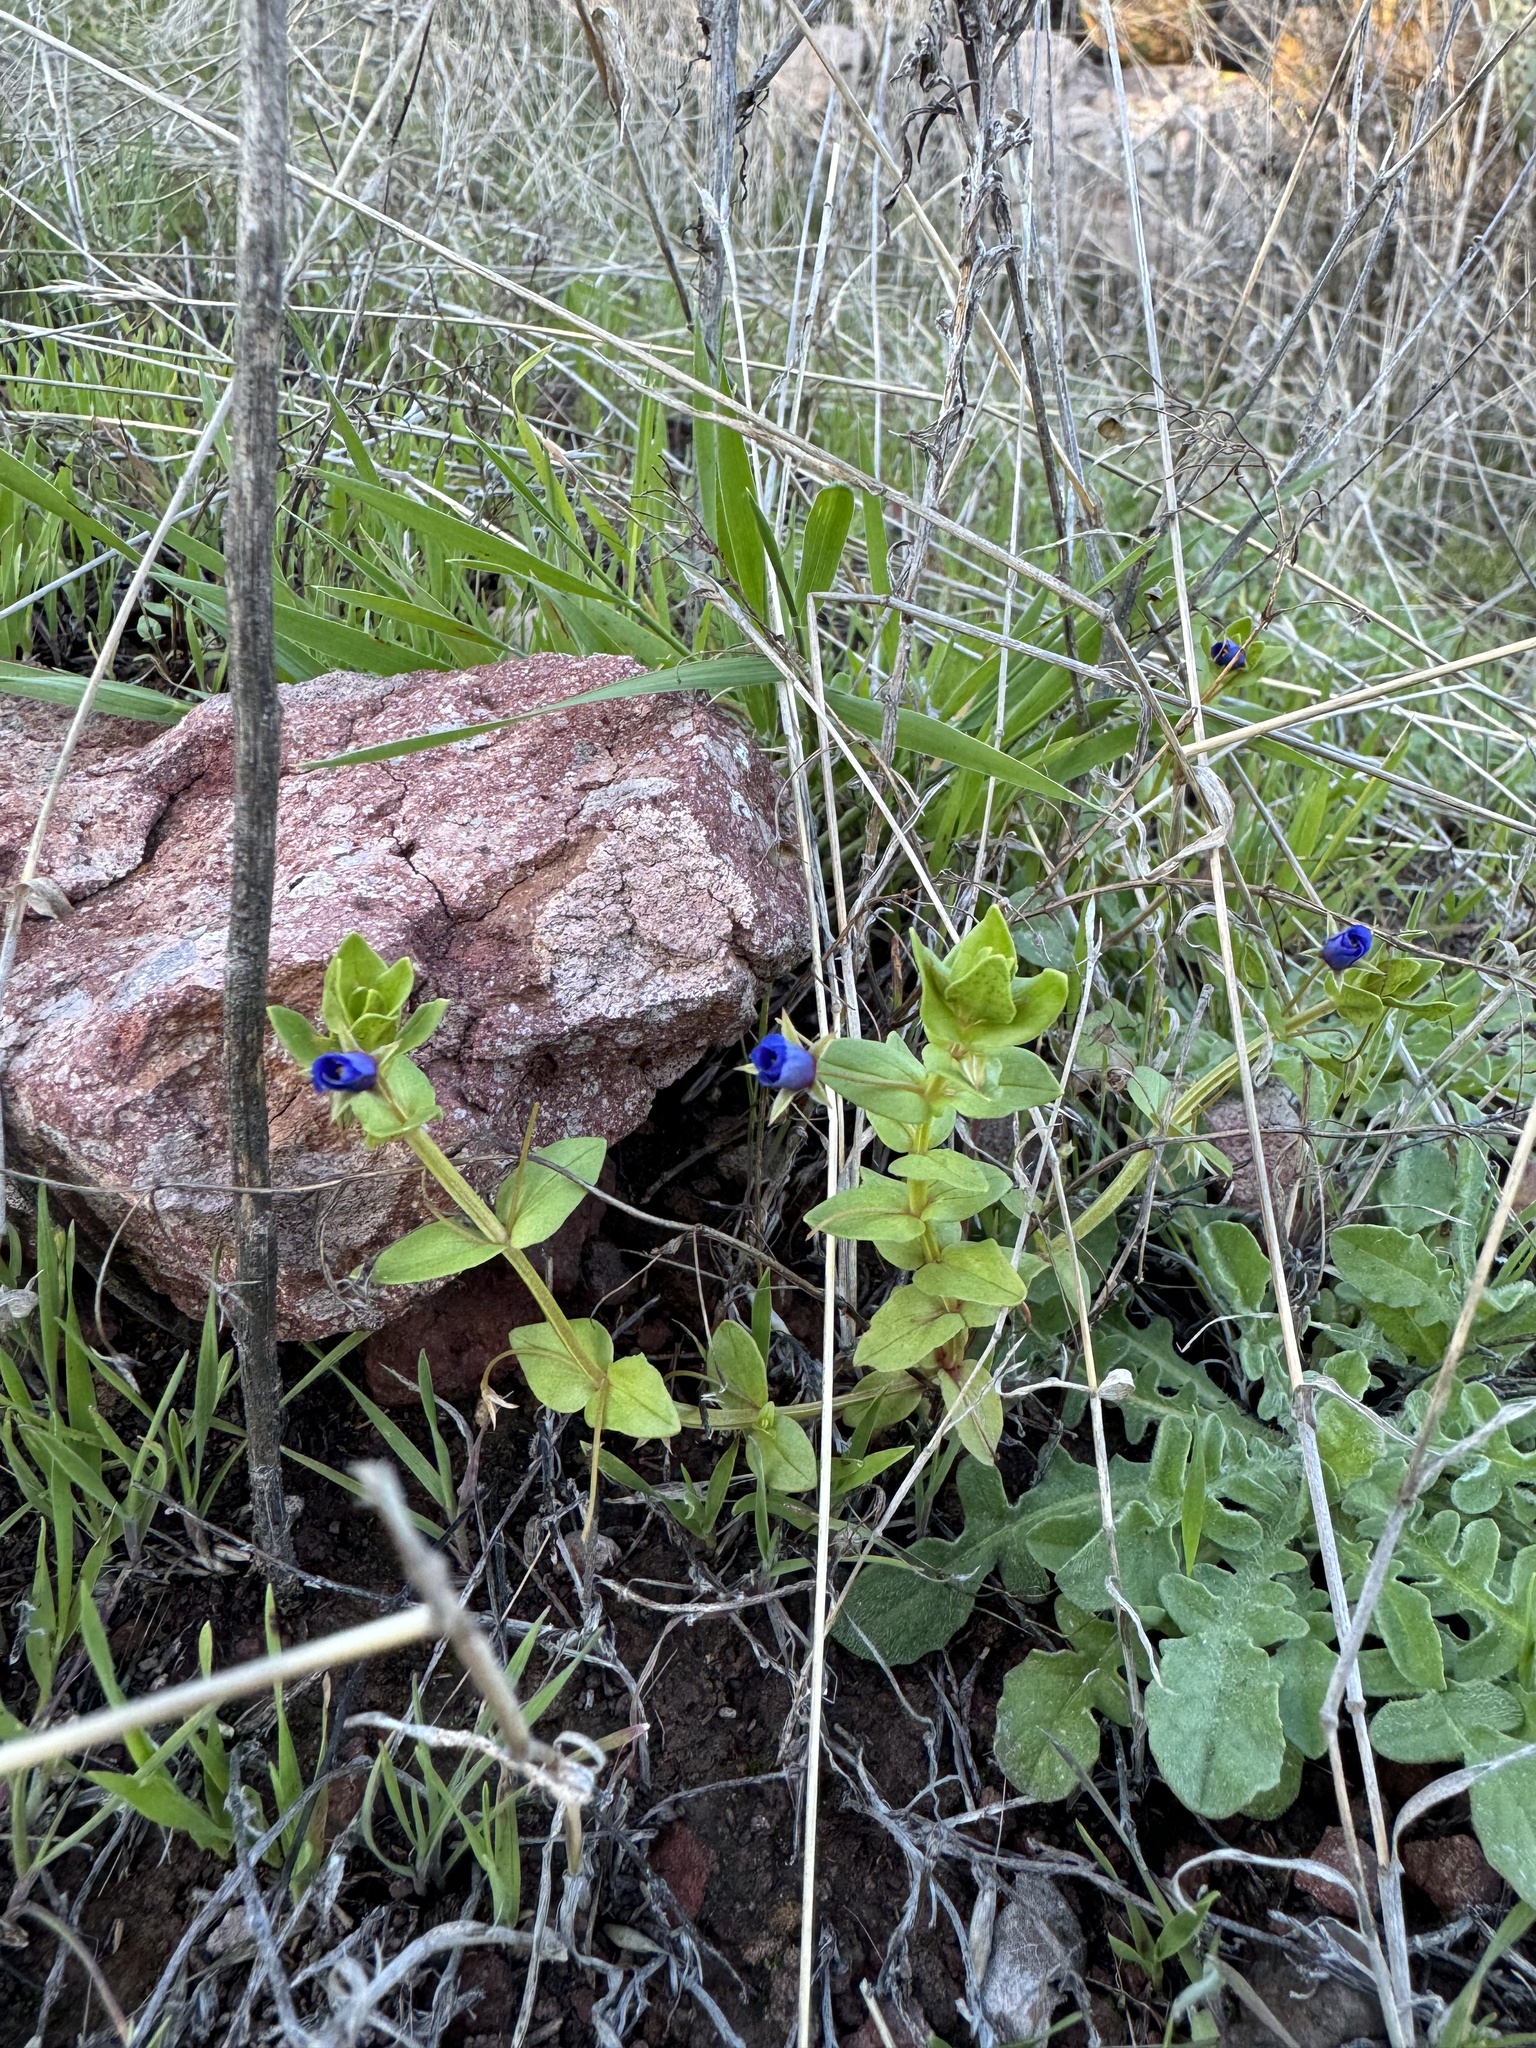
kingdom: Plantae
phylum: Tracheophyta
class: Magnoliopsida
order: Ericales
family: Primulaceae
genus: Lysimachia
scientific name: Lysimachia loeflingii
